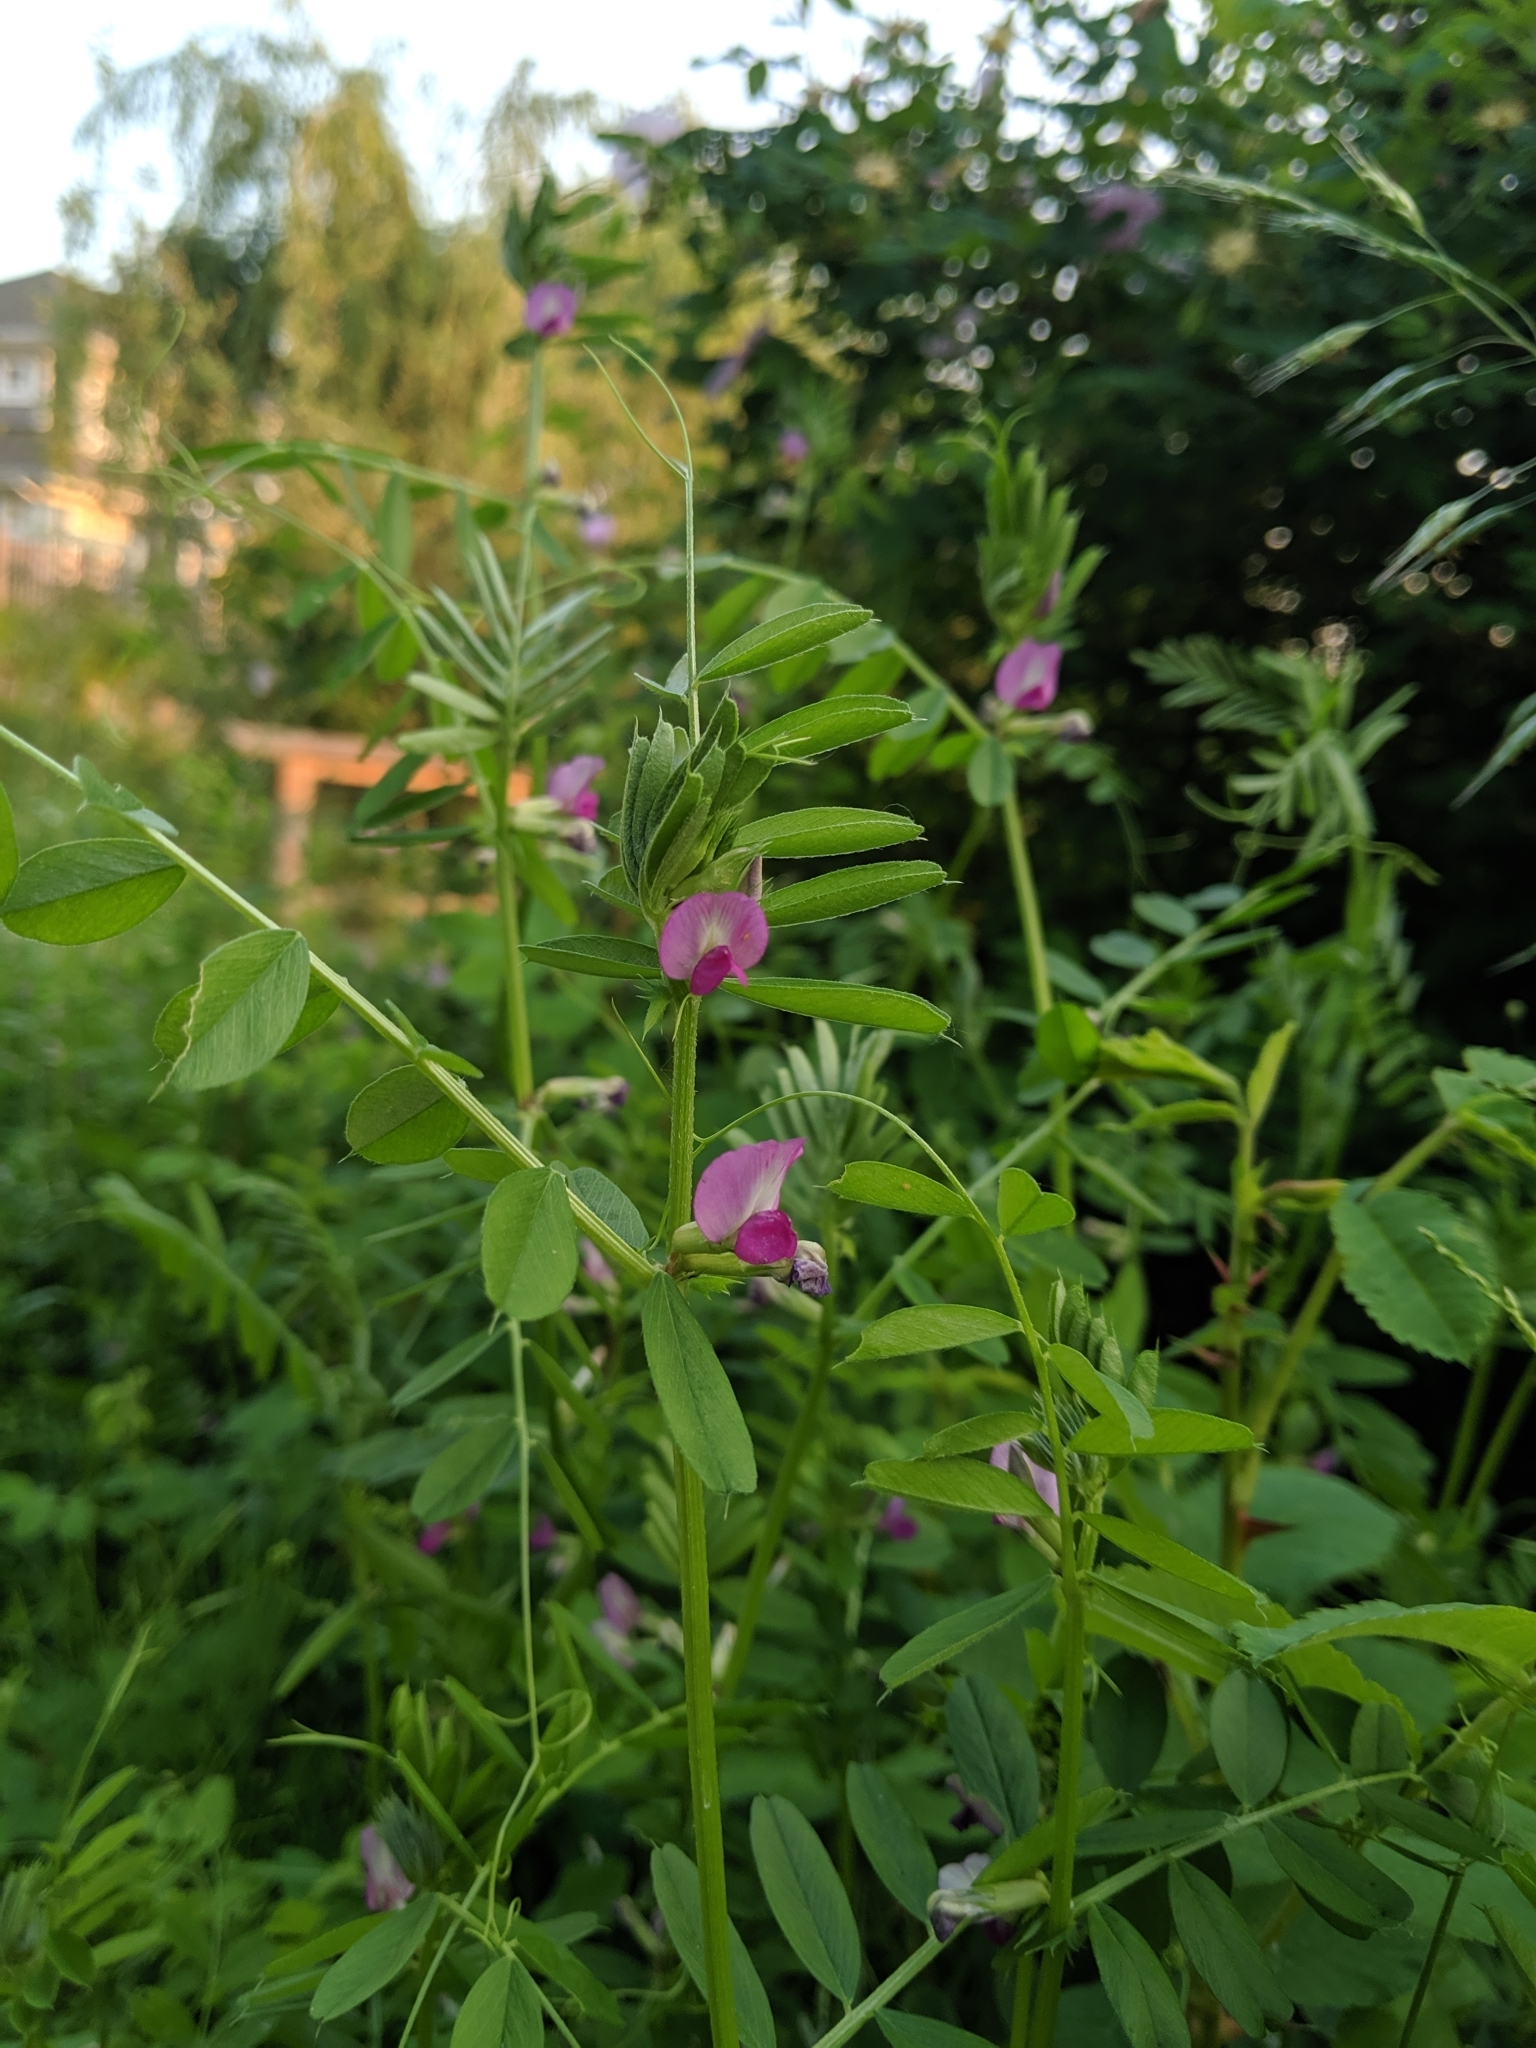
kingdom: Plantae
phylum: Tracheophyta
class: Magnoliopsida
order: Fabales
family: Fabaceae
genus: Vicia
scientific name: Vicia sativa
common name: Garden vetch
